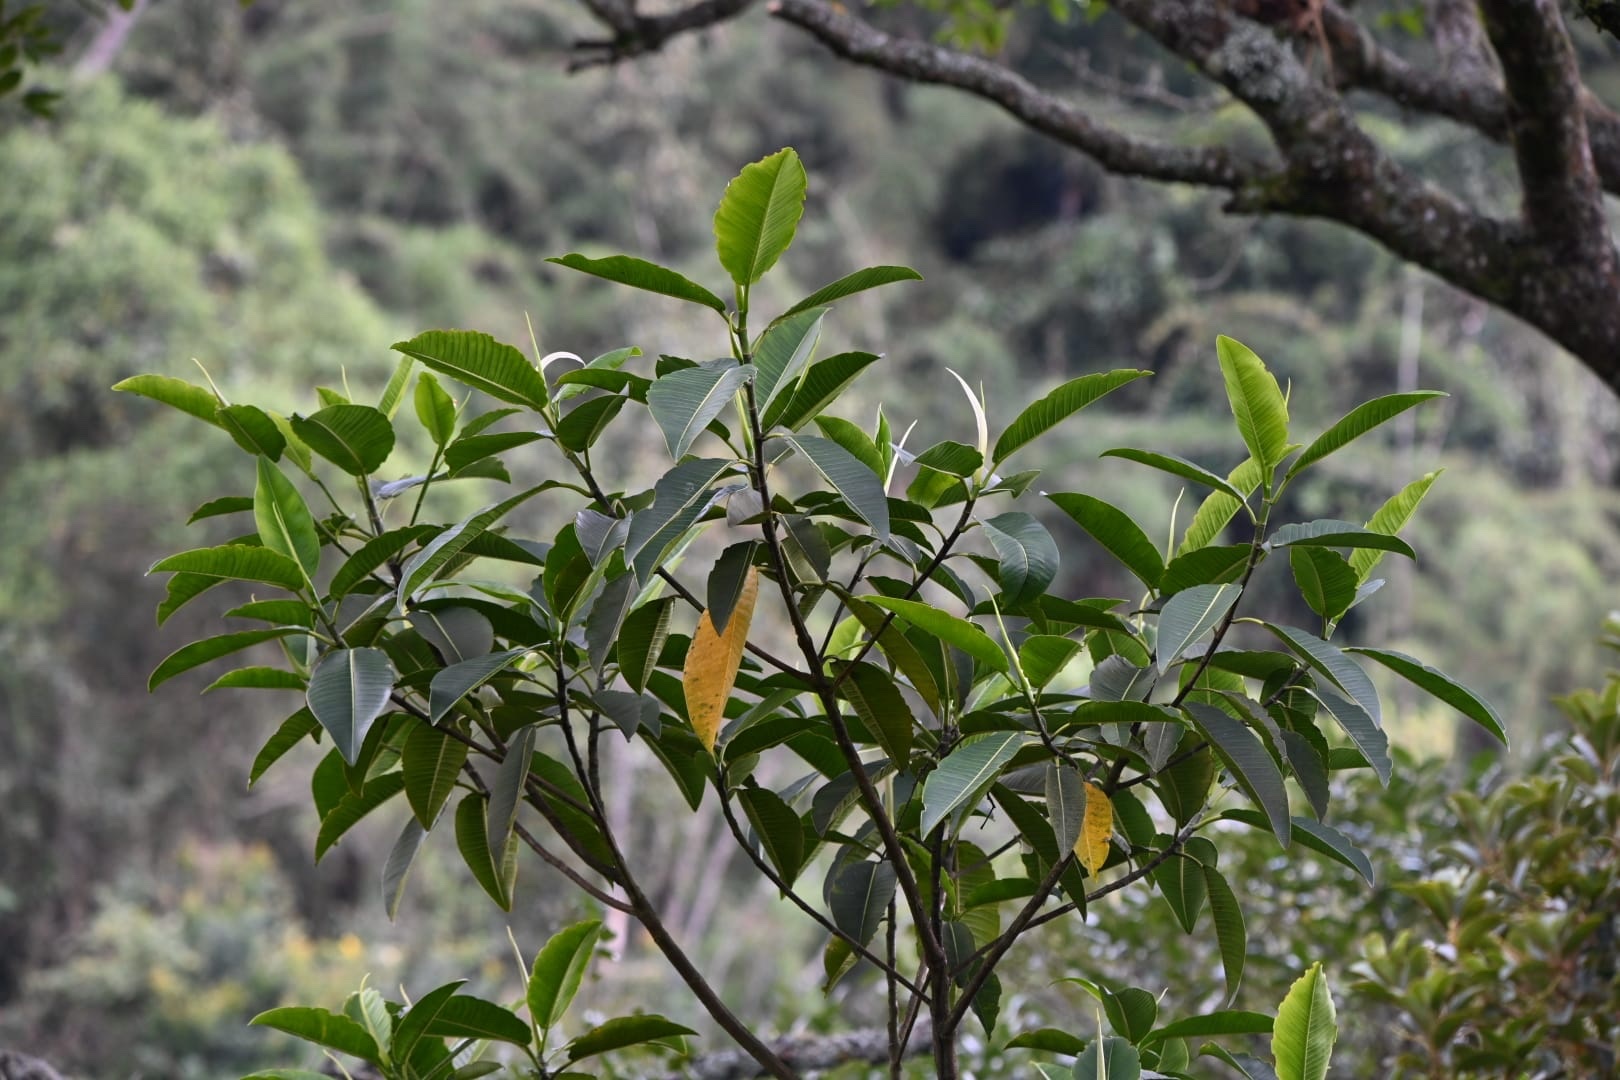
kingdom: Plantae
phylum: Tracheophyta
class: Magnoliopsida
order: Rosales
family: Moraceae
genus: Ficus
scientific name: Ficus gigantosyce
